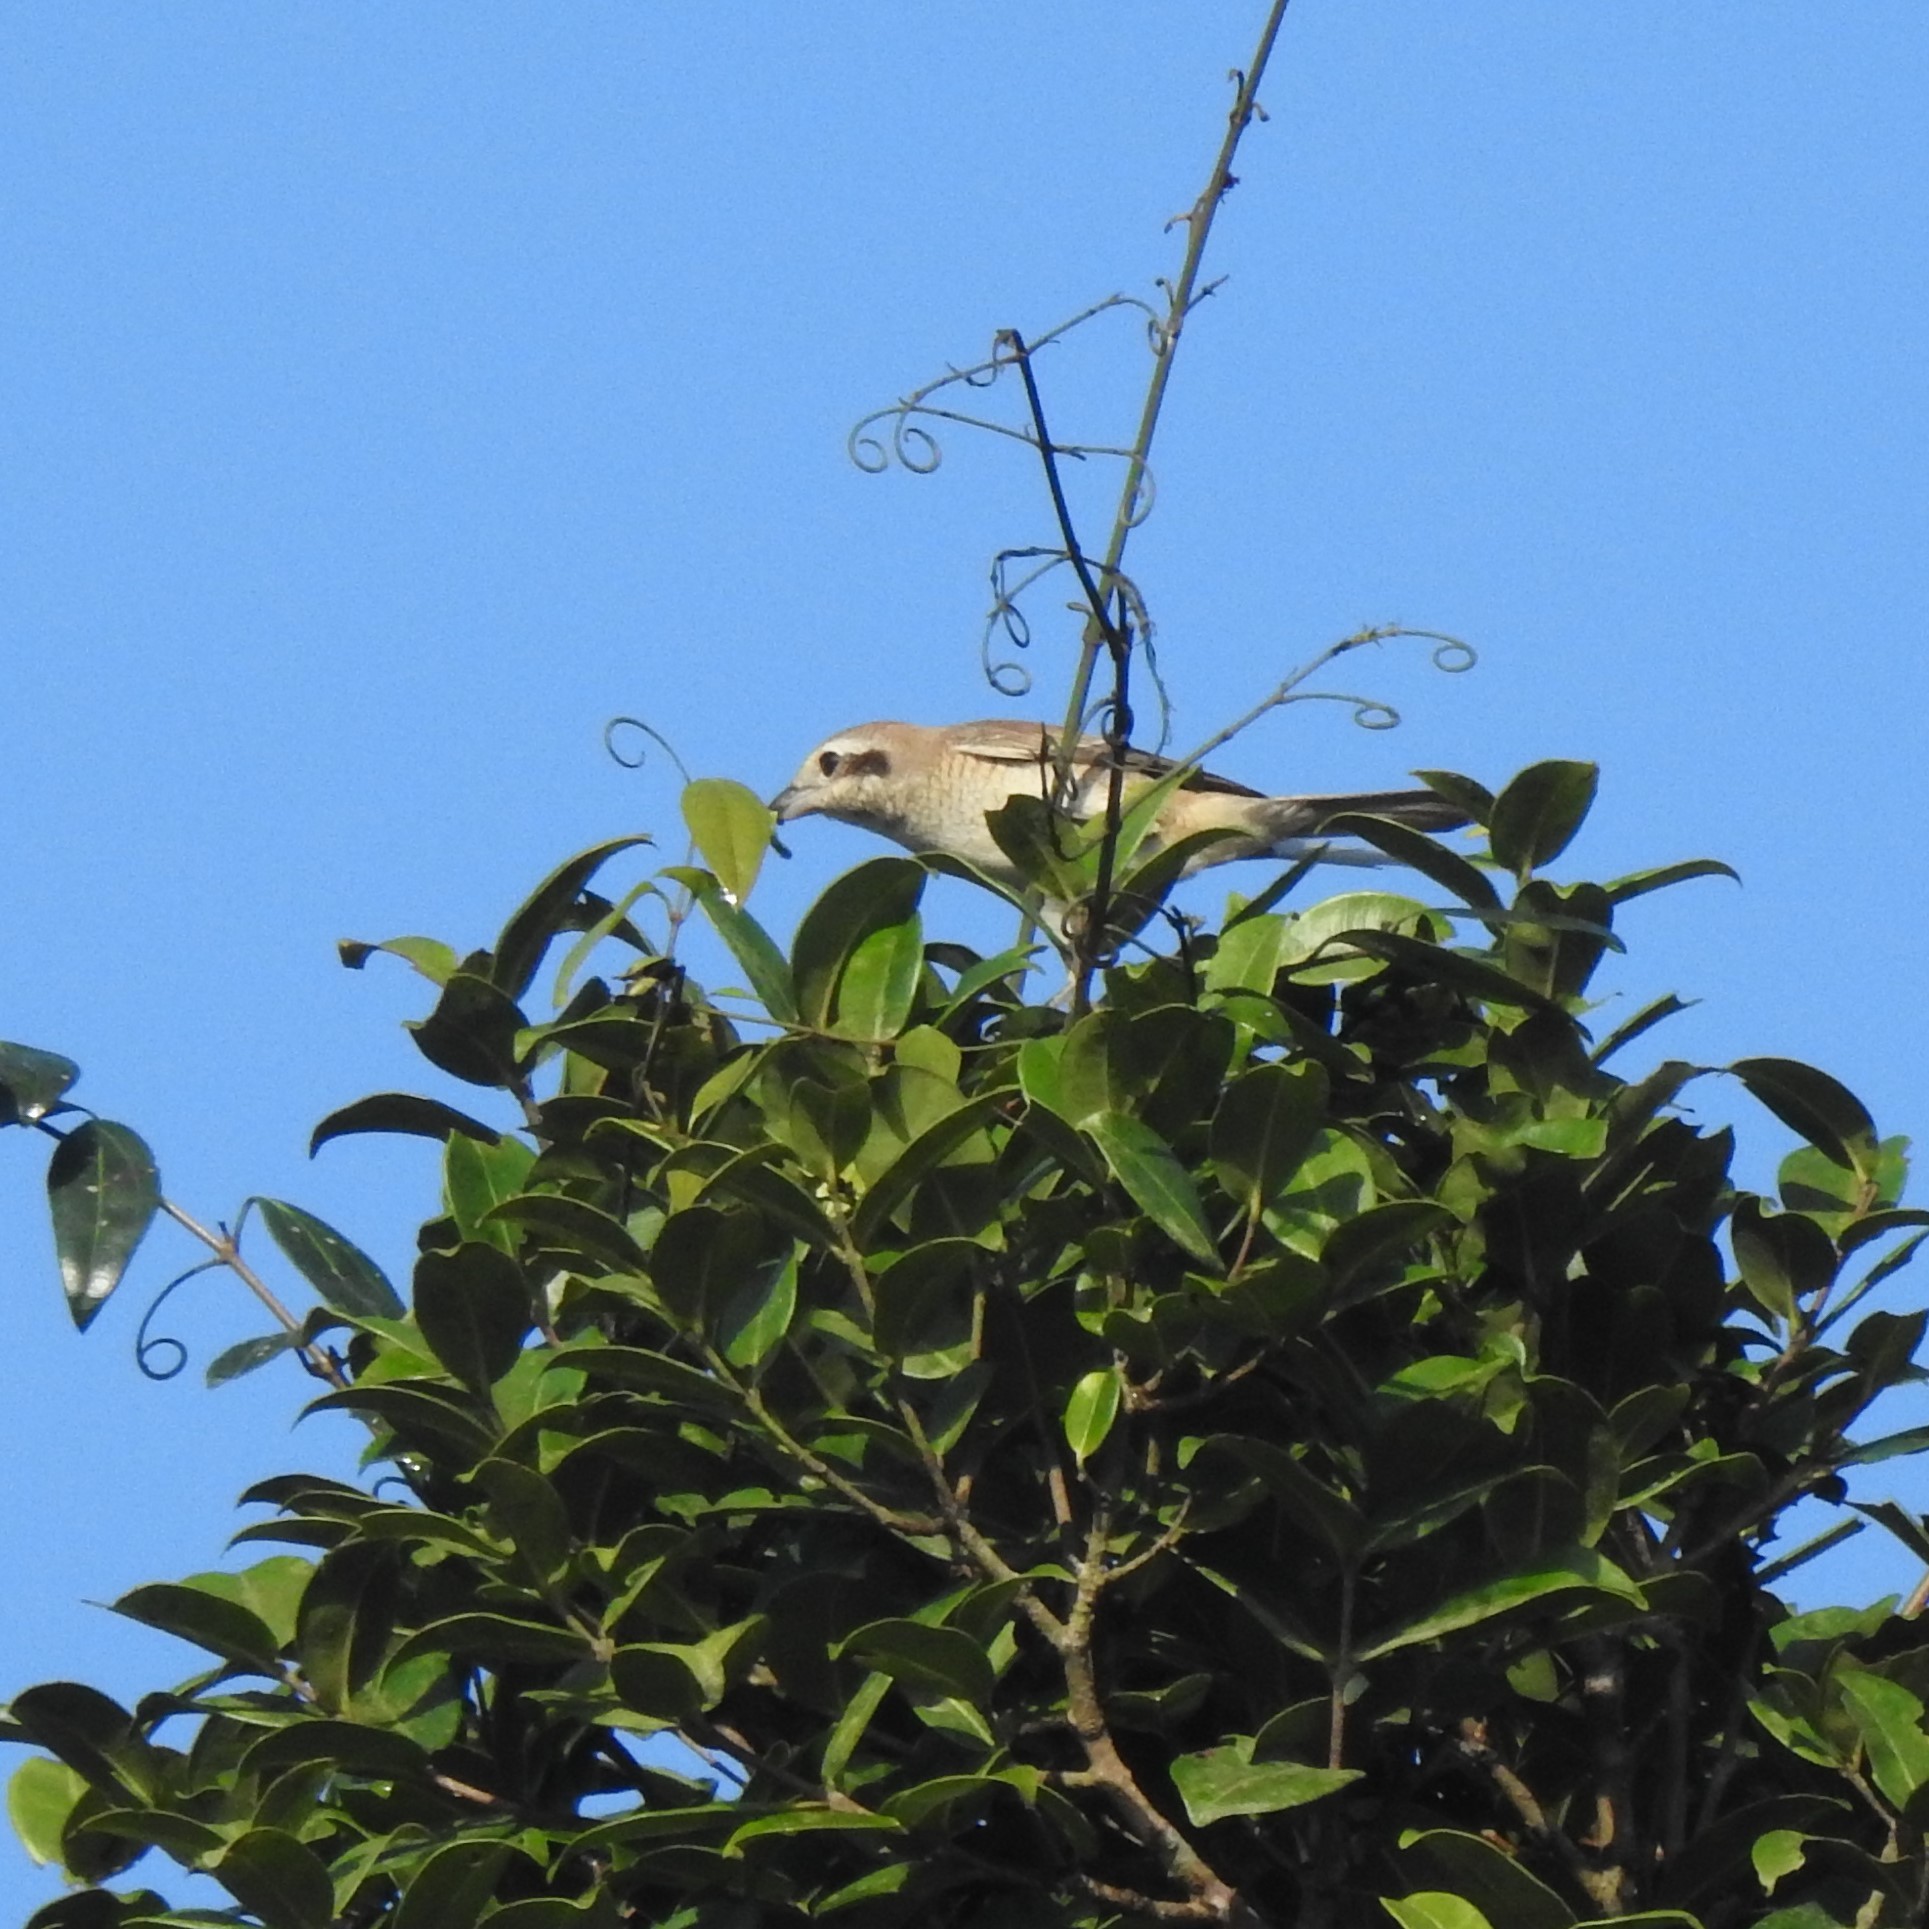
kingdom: Animalia
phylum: Chordata
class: Aves
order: Passeriformes
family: Laniidae
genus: Lanius
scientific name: Lanius cristatus
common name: Brown shrike
